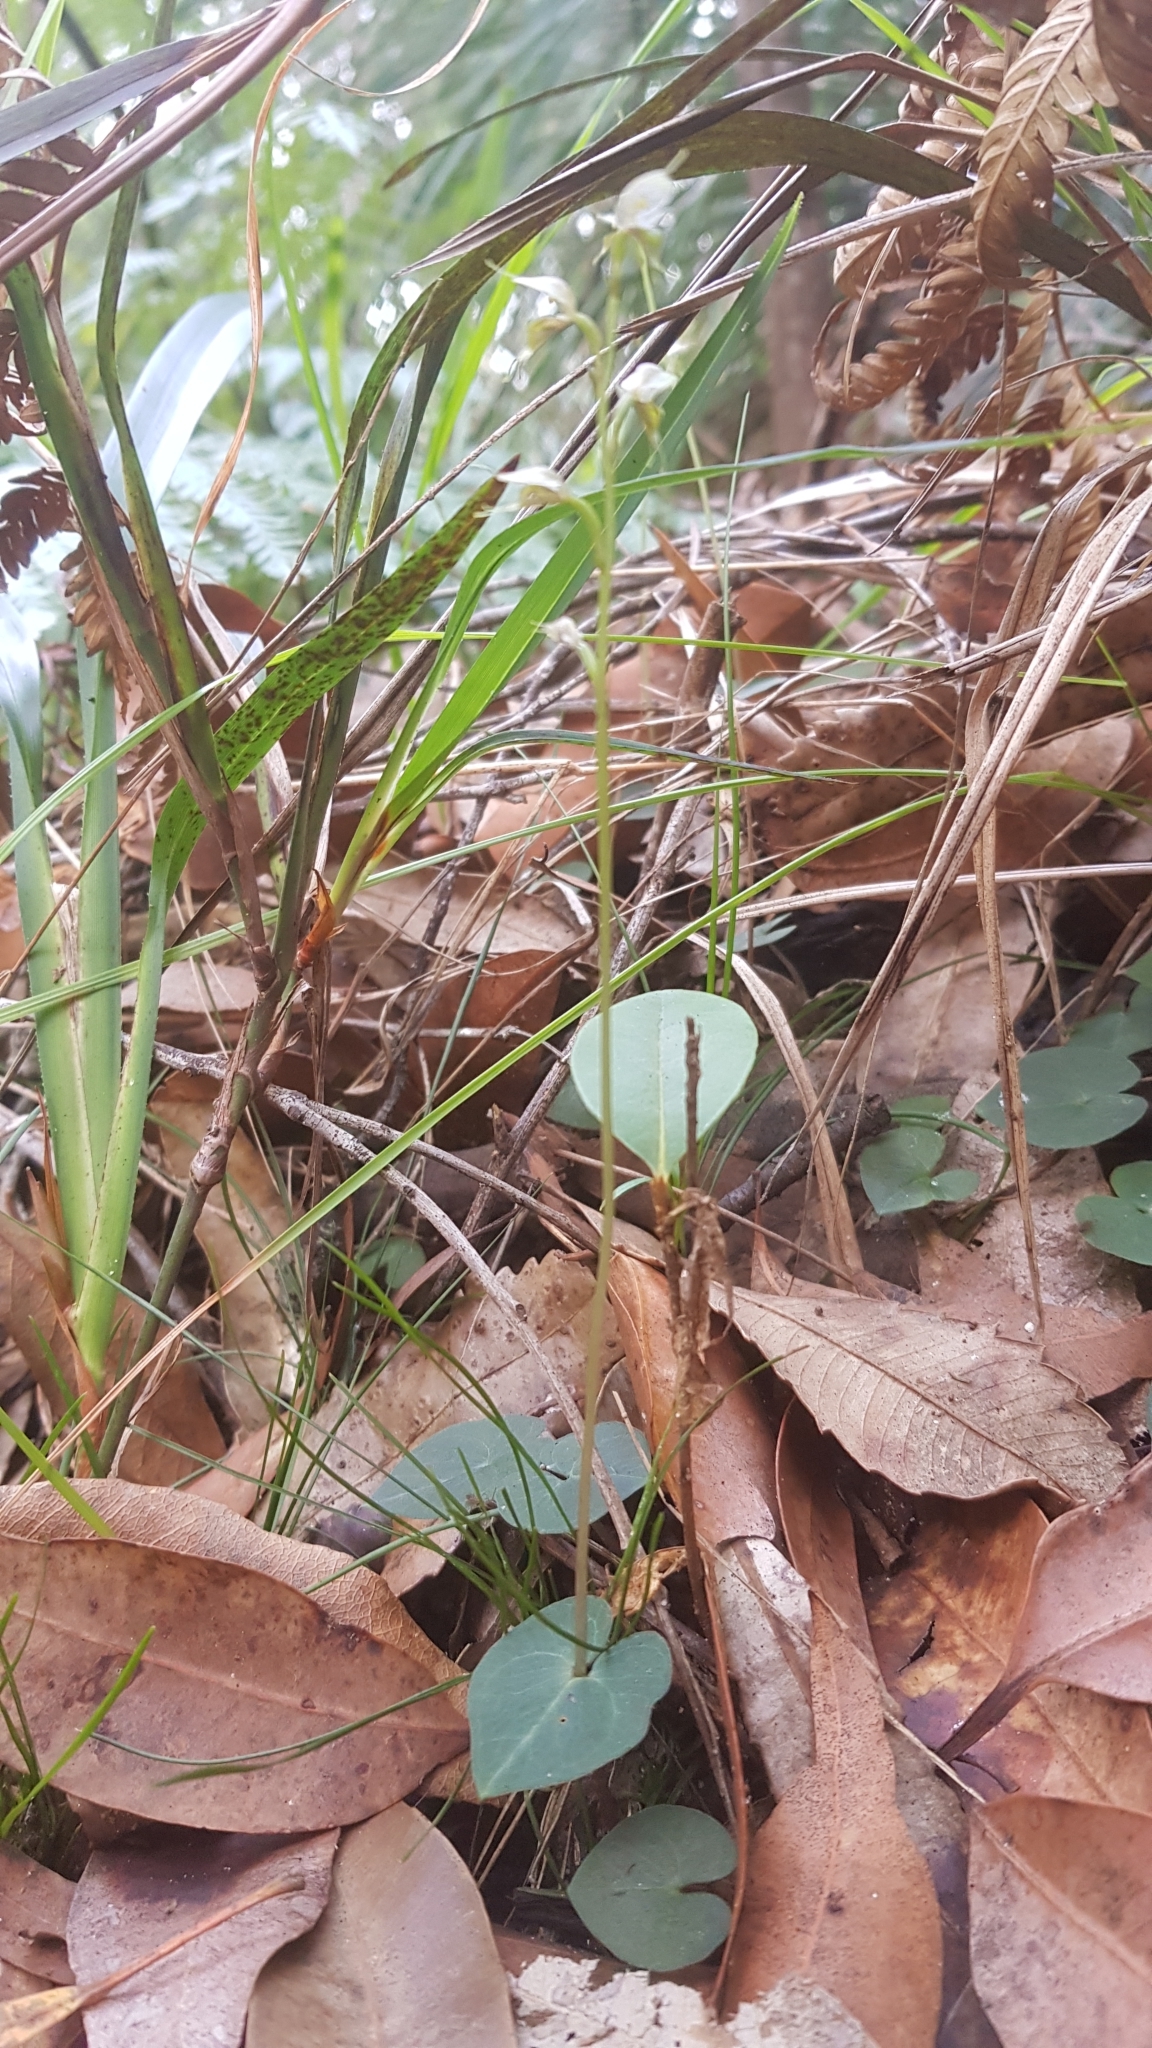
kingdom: Plantae
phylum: Tracheophyta
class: Liliopsida
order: Asparagales
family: Orchidaceae
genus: Acianthus
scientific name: Acianthus fornicatus
